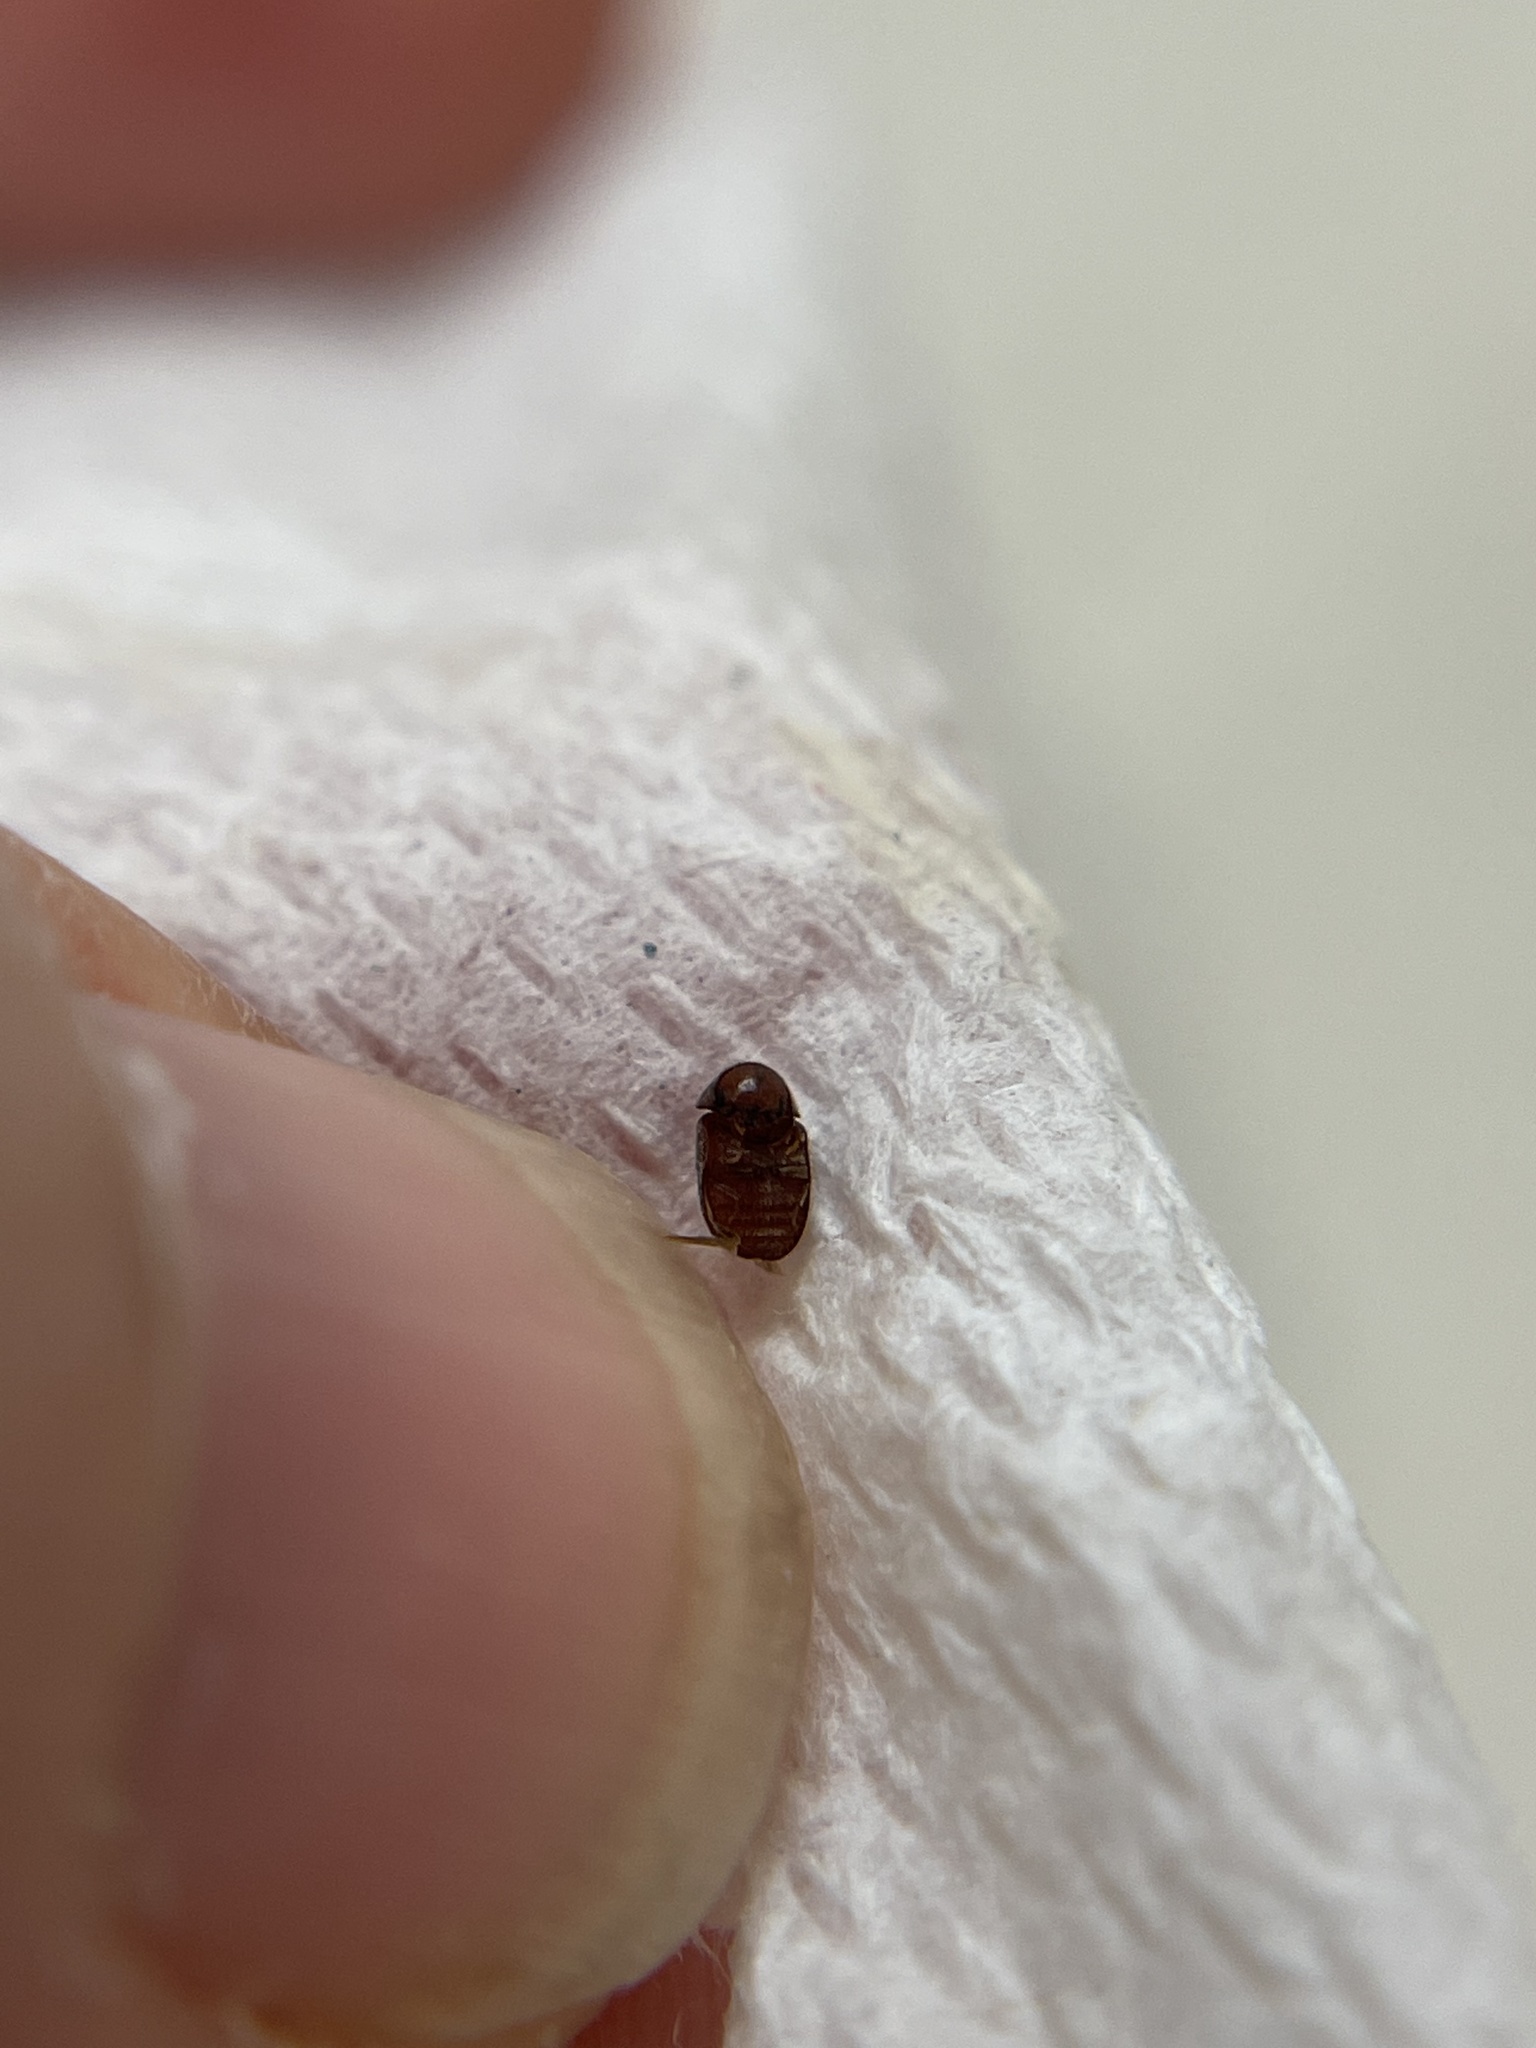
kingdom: Animalia
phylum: Arthropoda
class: Insecta
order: Coleoptera
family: Anobiidae
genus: Lasioderma
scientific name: Lasioderma serricorne
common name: Cigarette beetle
